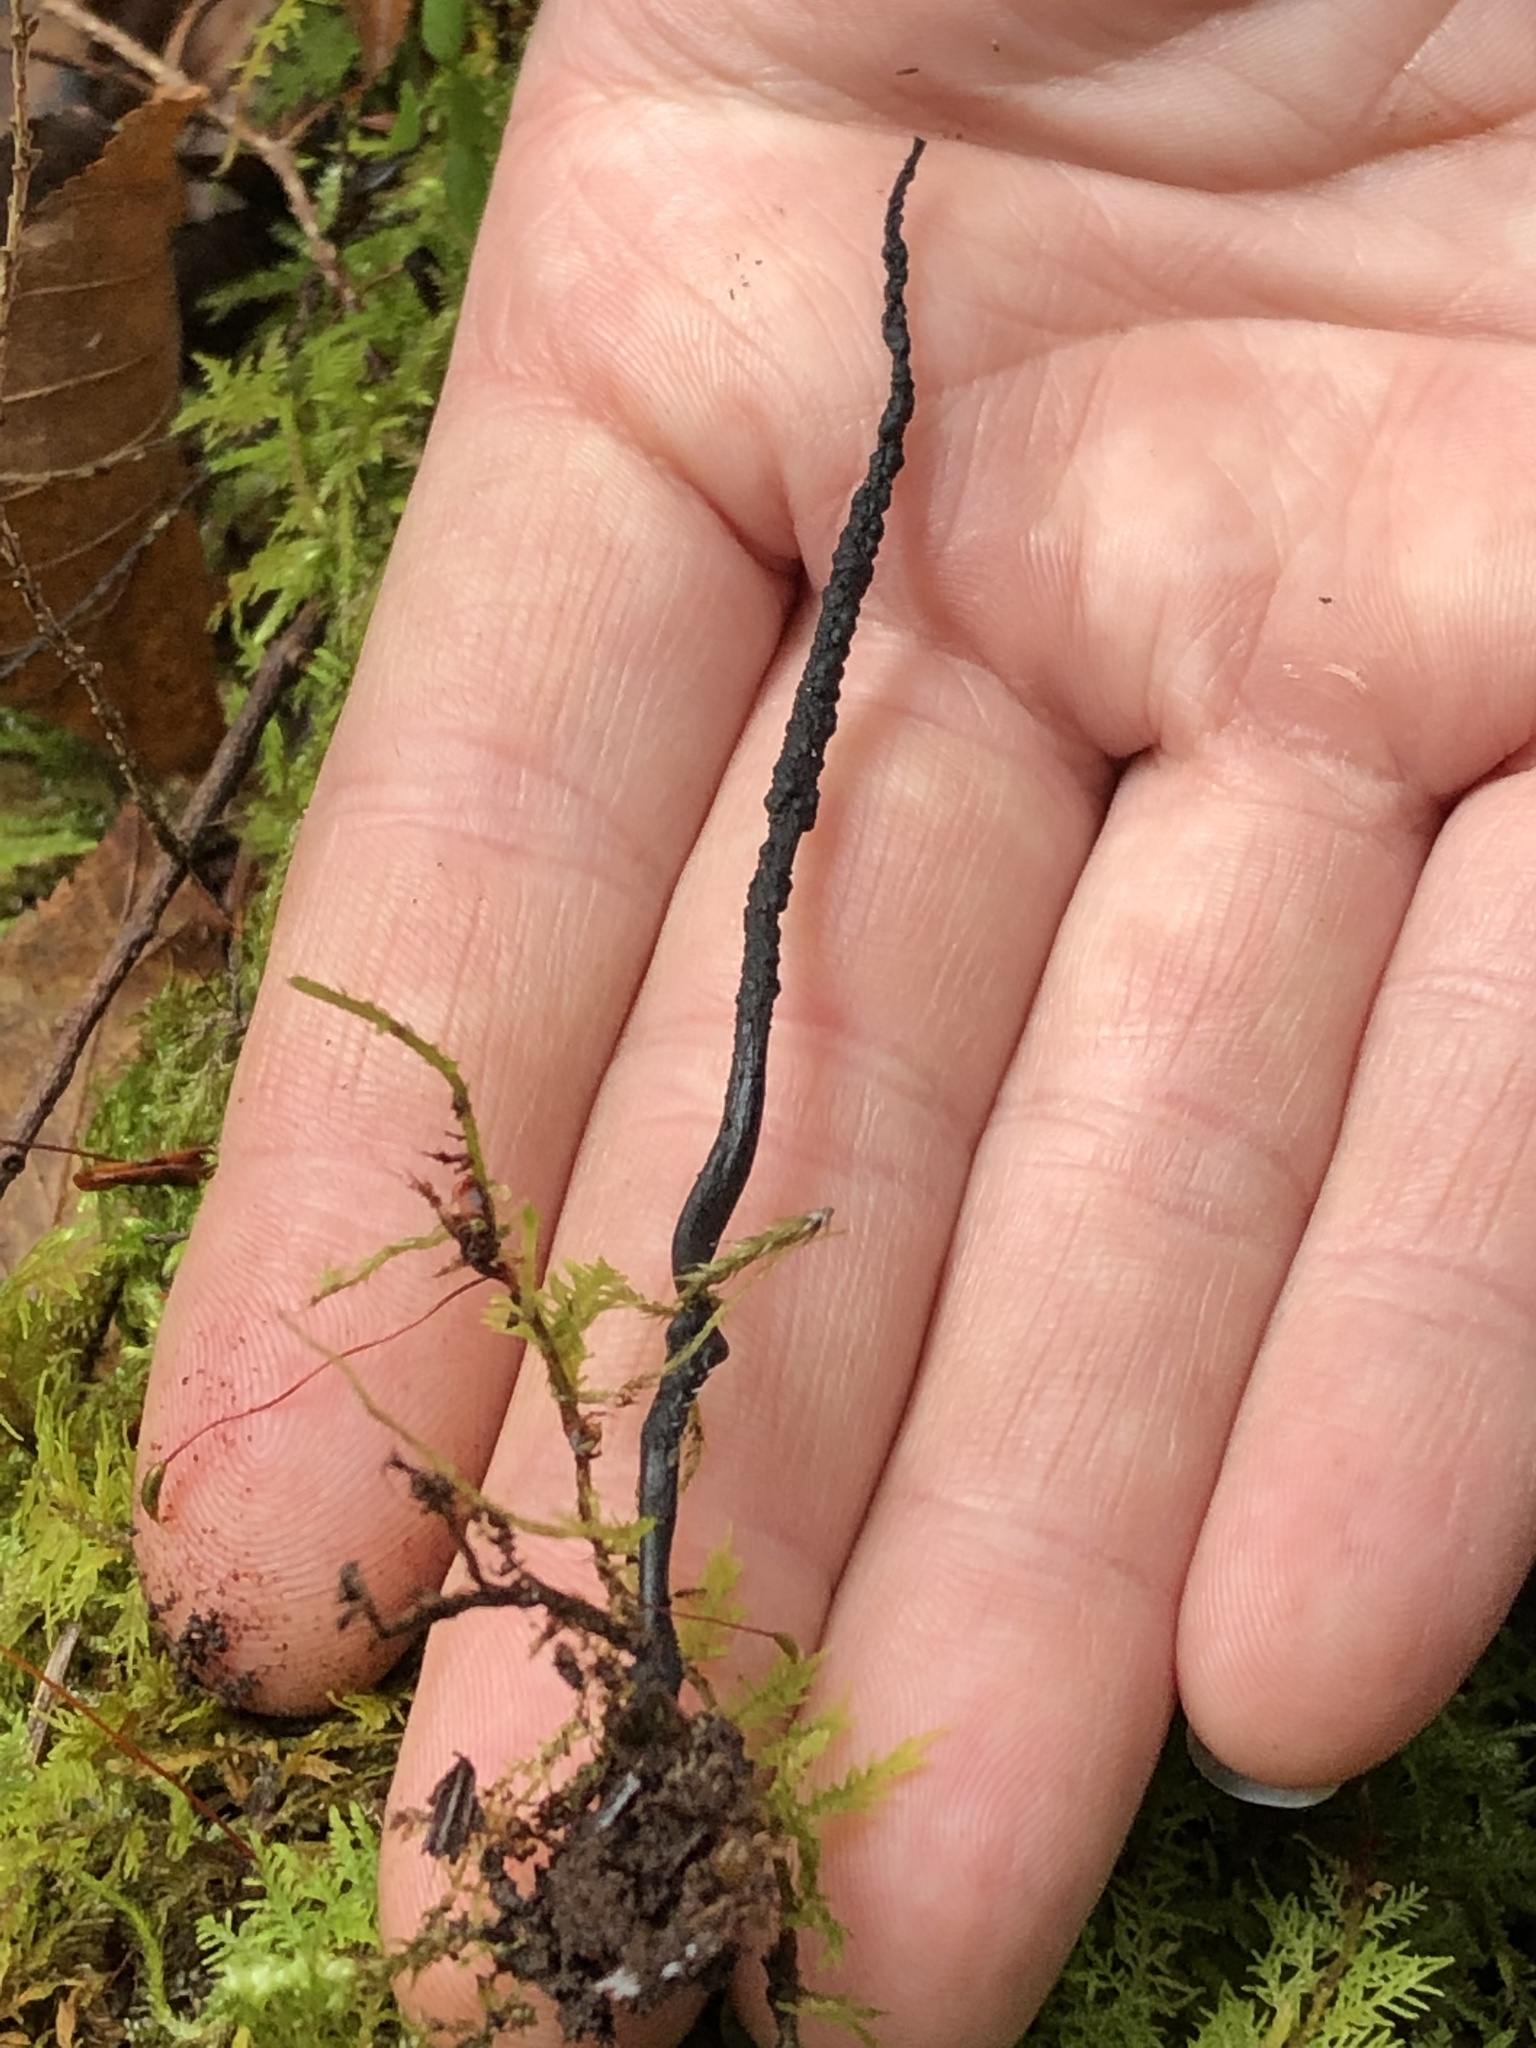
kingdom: Fungi
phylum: Ascomycota
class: Sordariomycetes
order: Xylariales
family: Xylariaceae
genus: Xylaria
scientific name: Xylaria vasconica
